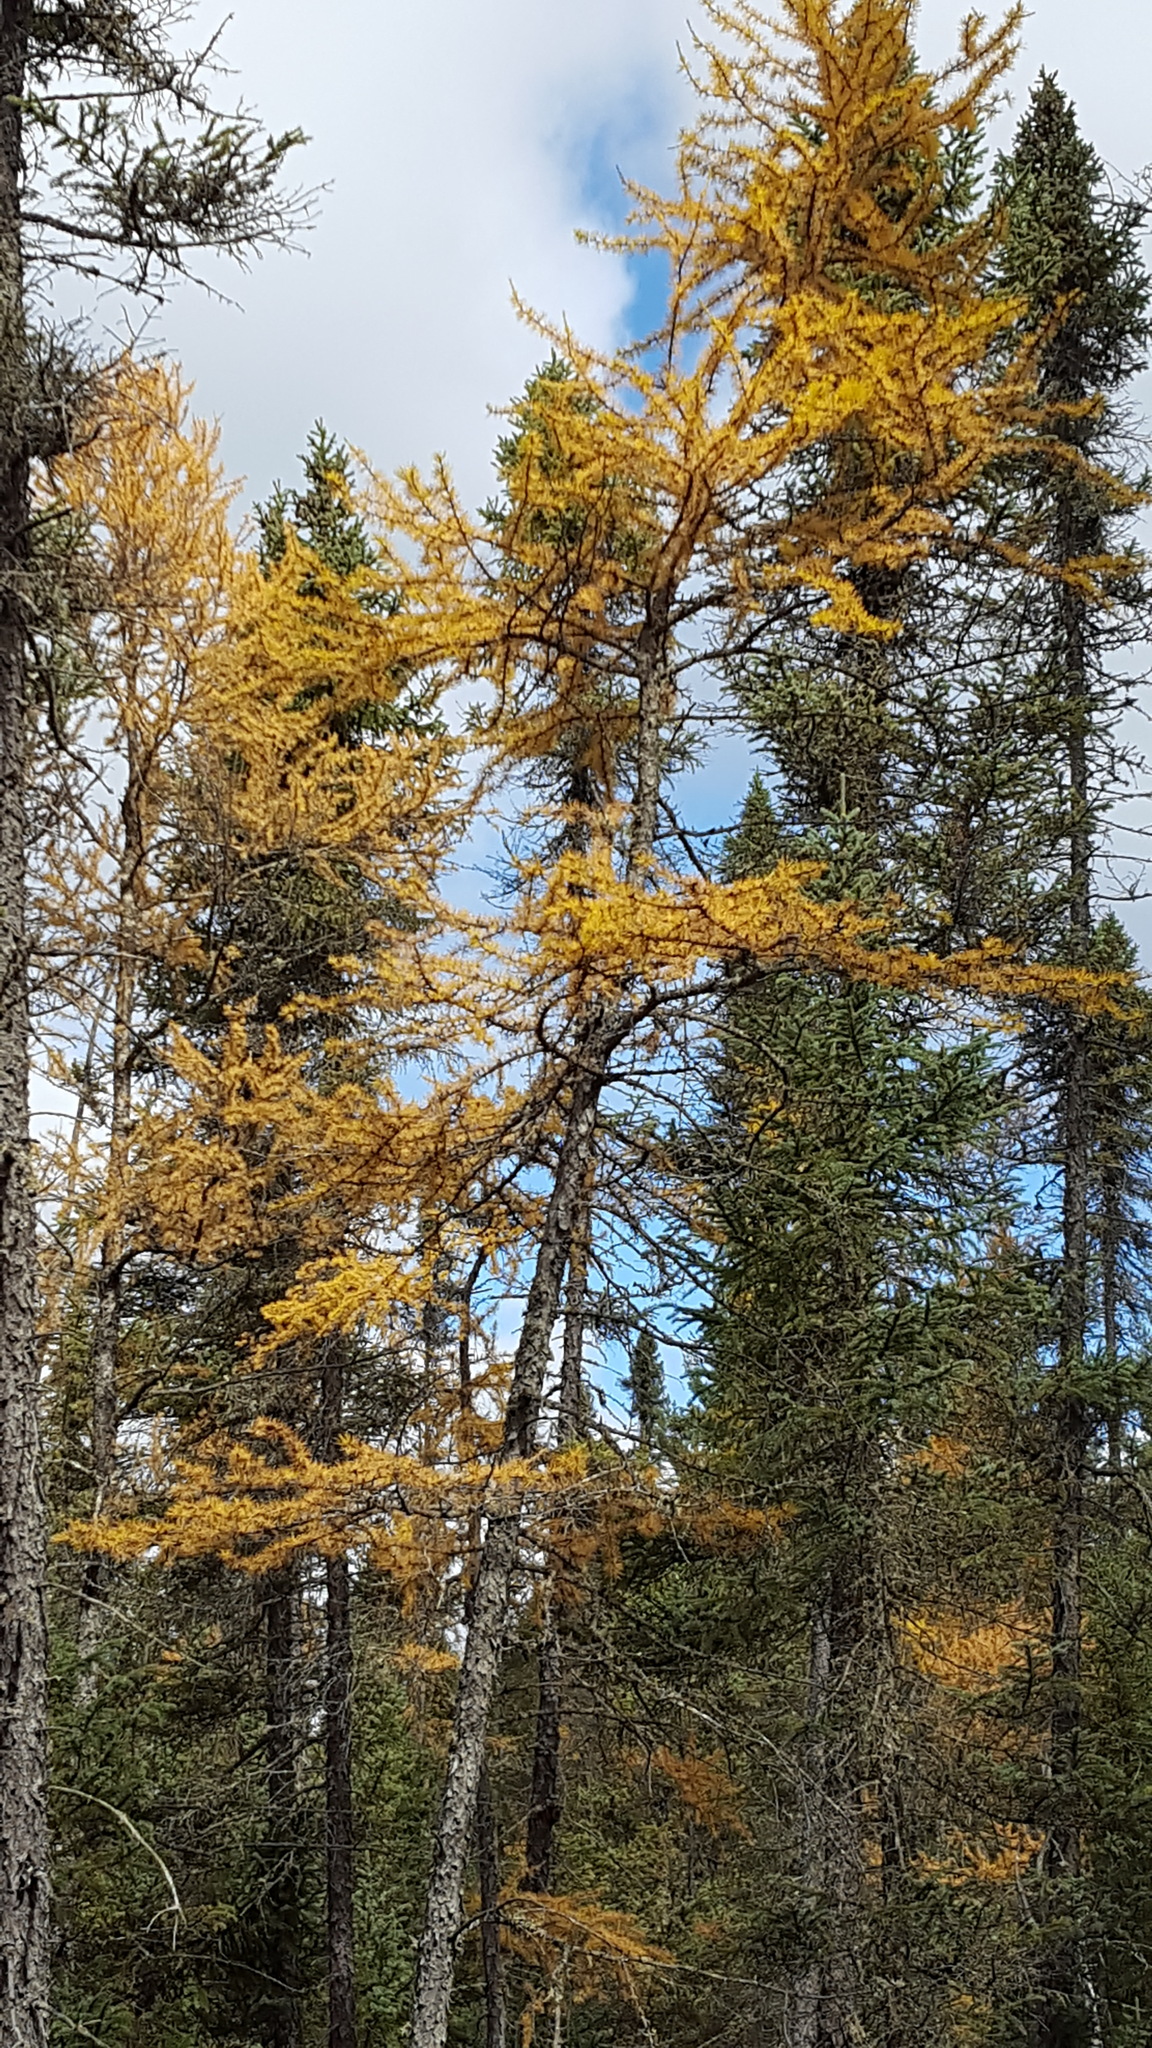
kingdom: Plantae
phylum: Tracheophyta
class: Pinopsida
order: Pinales
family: Pinaceae
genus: Larix
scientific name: Larix laricina
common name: American larch
